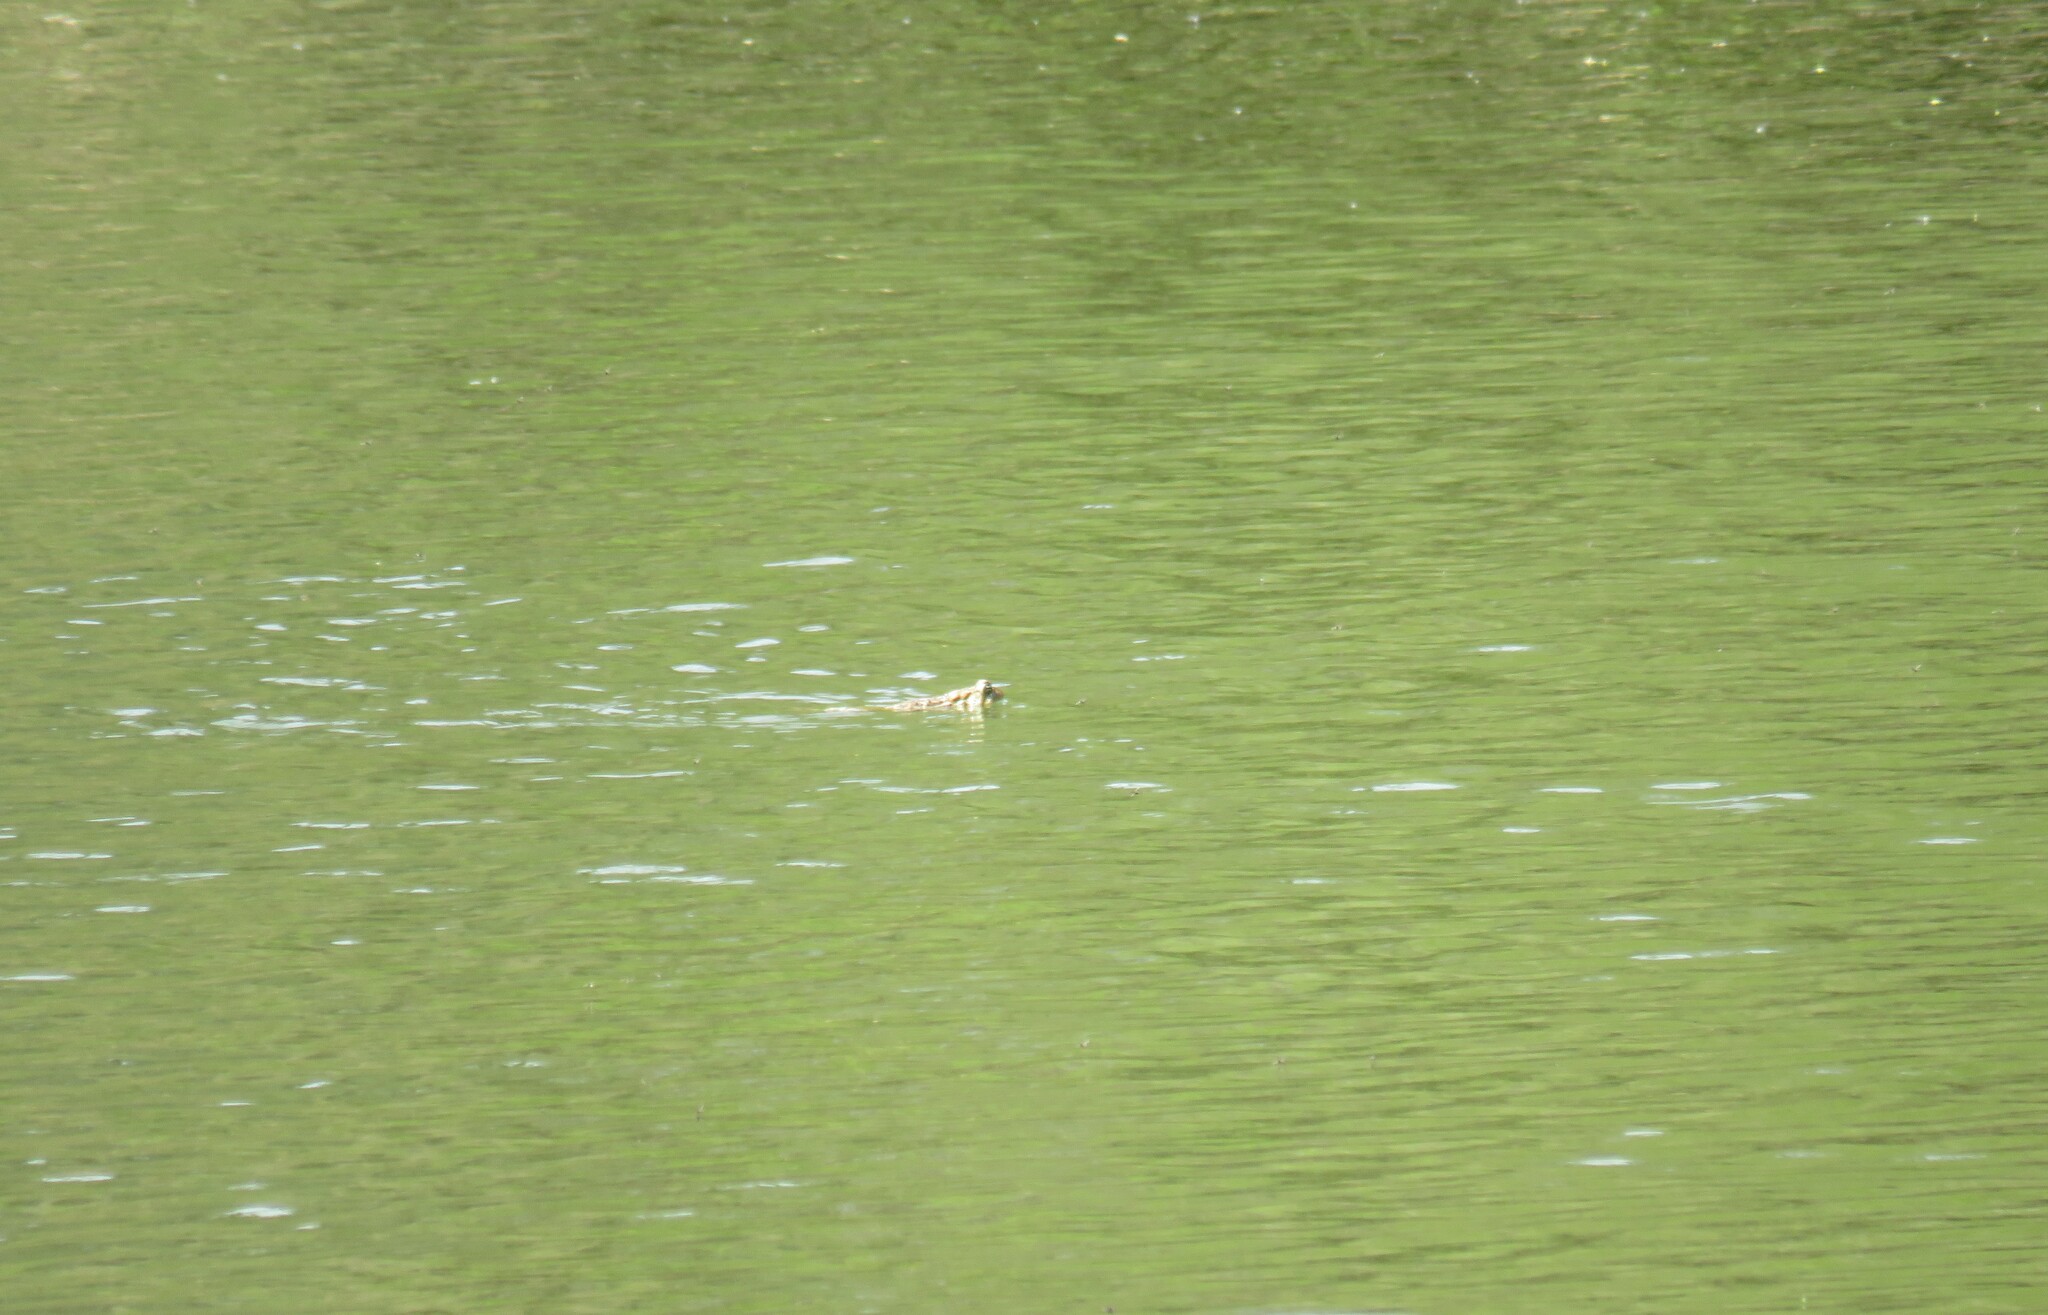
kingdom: Animalia
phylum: Chordata
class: Amphibia
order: Anura
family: Bufonidae
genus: Anaxyrus
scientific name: Anaxyrus americanus
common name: American toad
